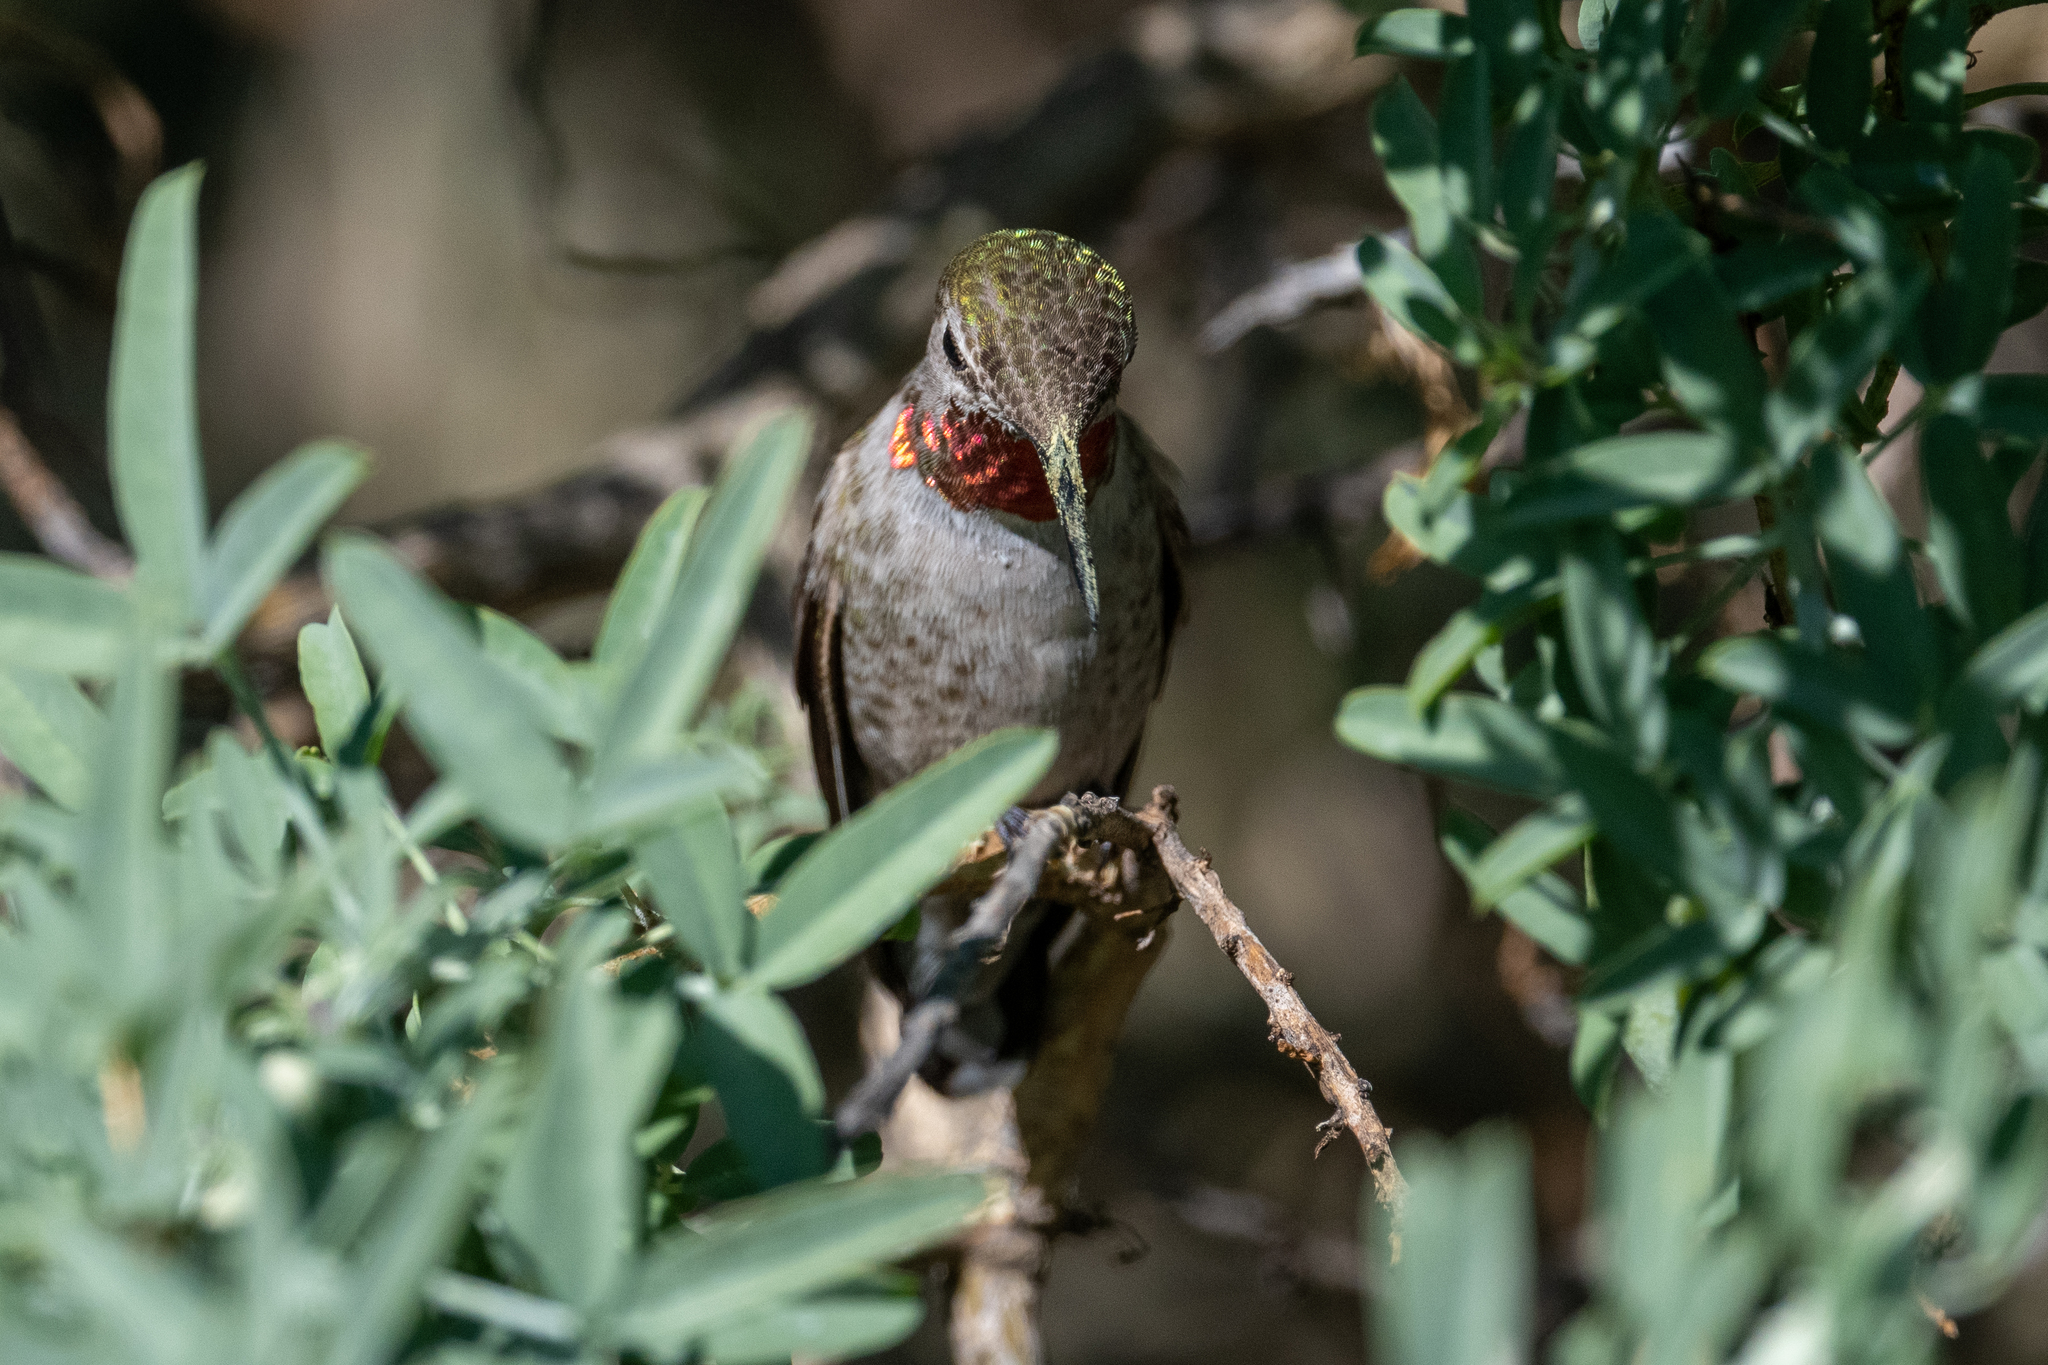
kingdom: Animalia
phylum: Chordata
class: Aves
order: Apodiformes
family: Trochilidae
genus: Calypte
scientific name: Calypte anna
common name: Anna's hummingbird
